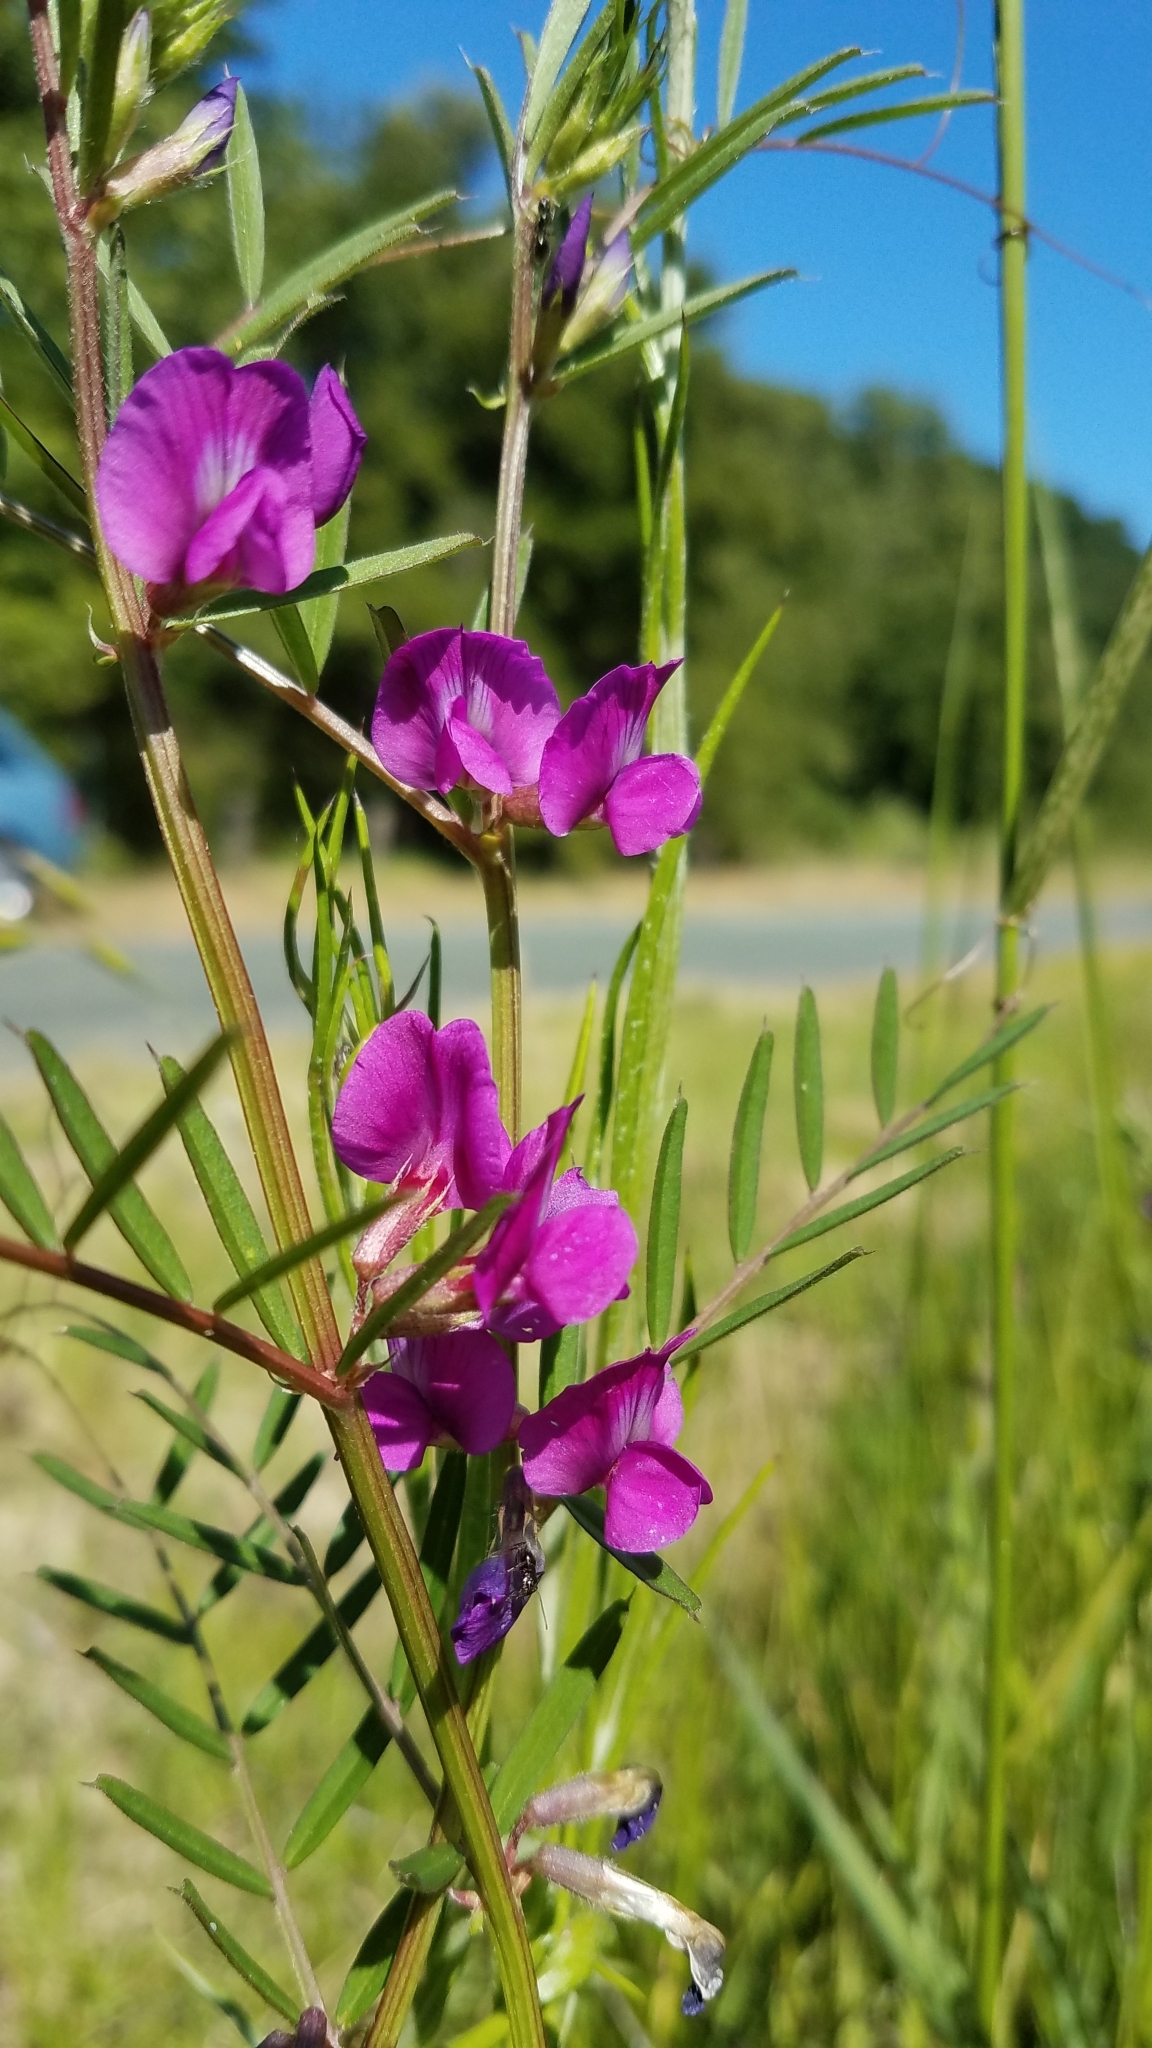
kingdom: Plantae
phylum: Tracheophyta
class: Magnoliopsida
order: Fabales
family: Fabaceae
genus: Vicia
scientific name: Vicia sativa
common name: Garden vetch
